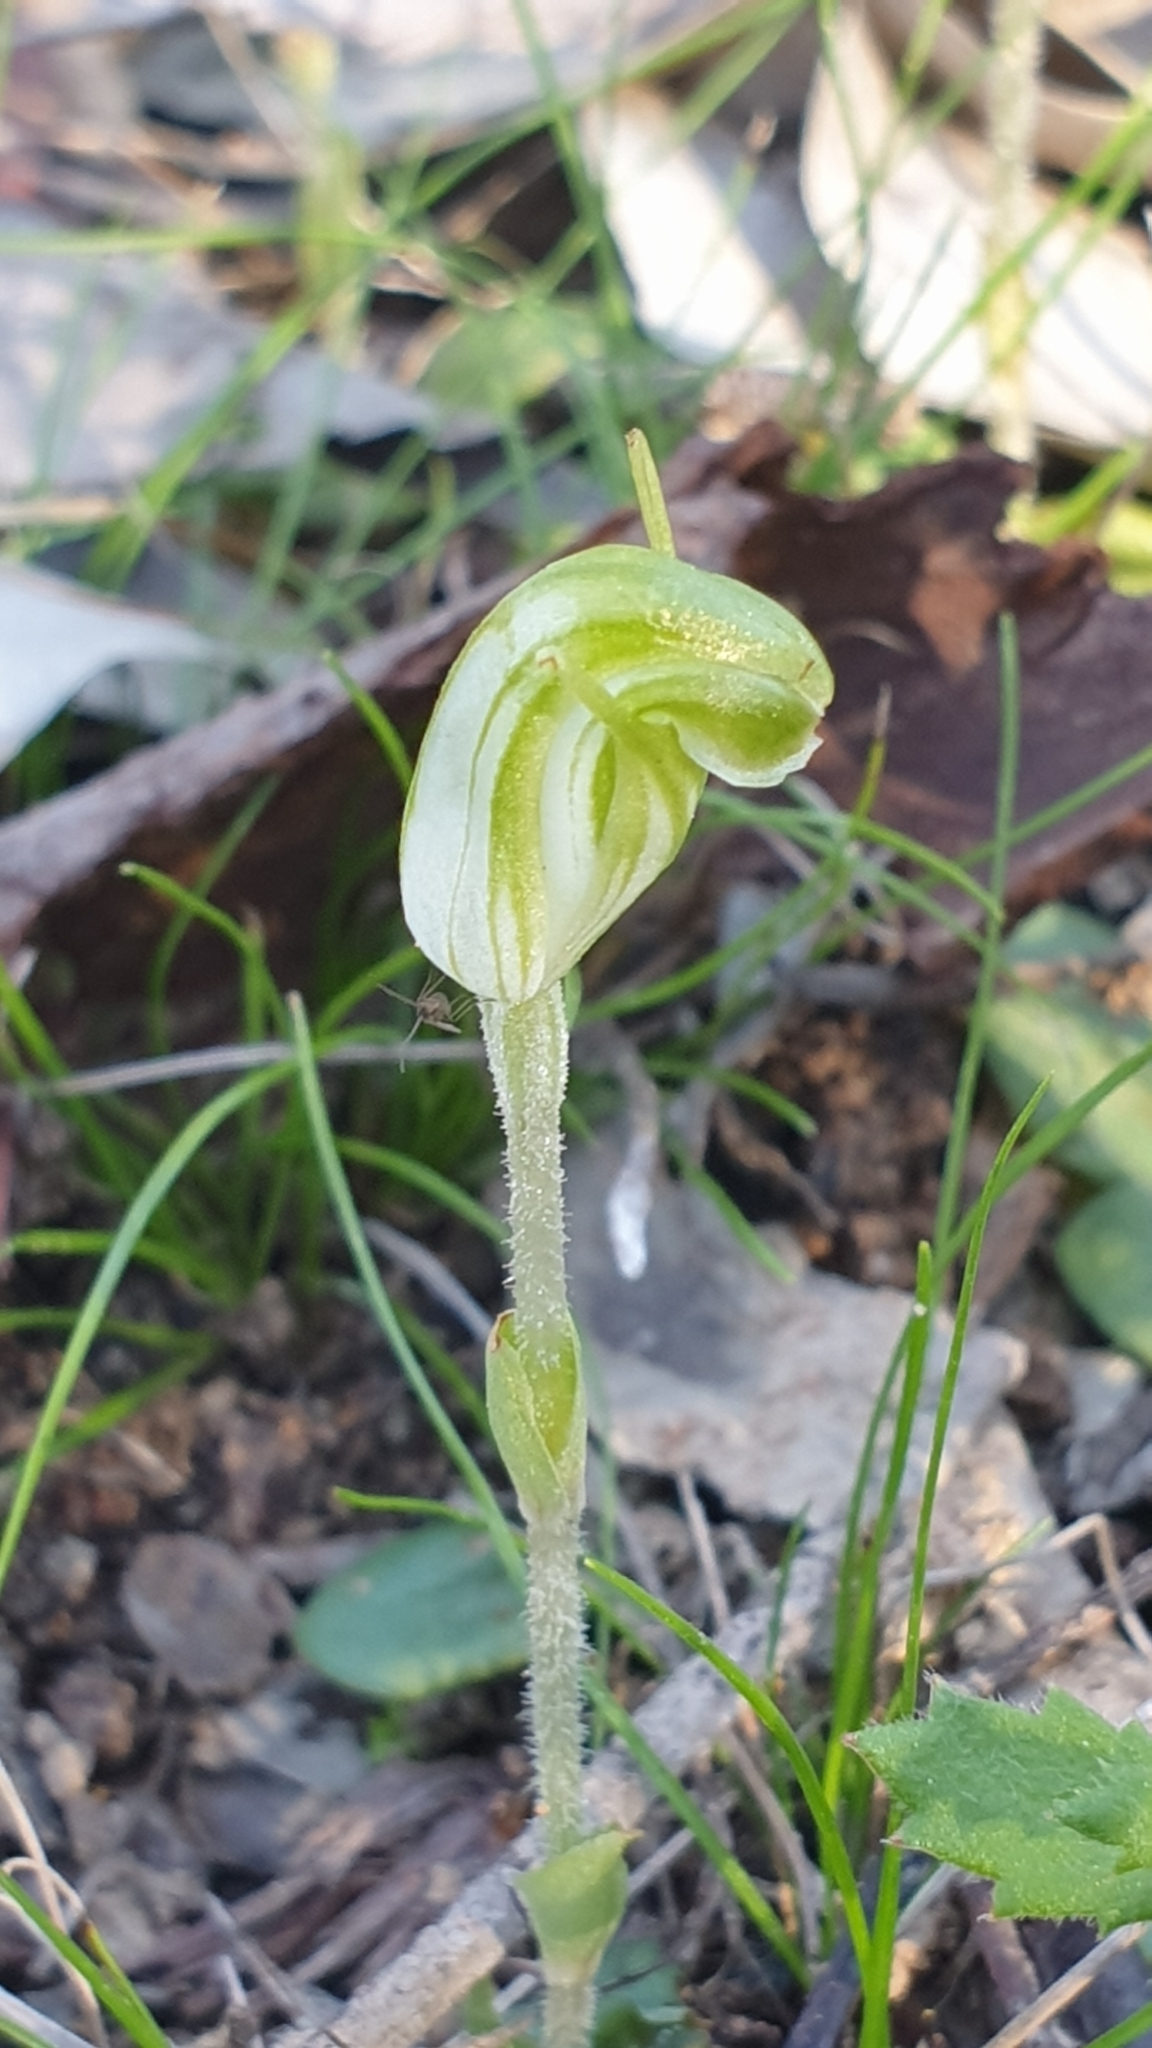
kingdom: Plantae
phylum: Tracheophyta
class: Liliopsida
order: Asparagales
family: Orchidaceae
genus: Pterostylis
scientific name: Pterostylis nana
